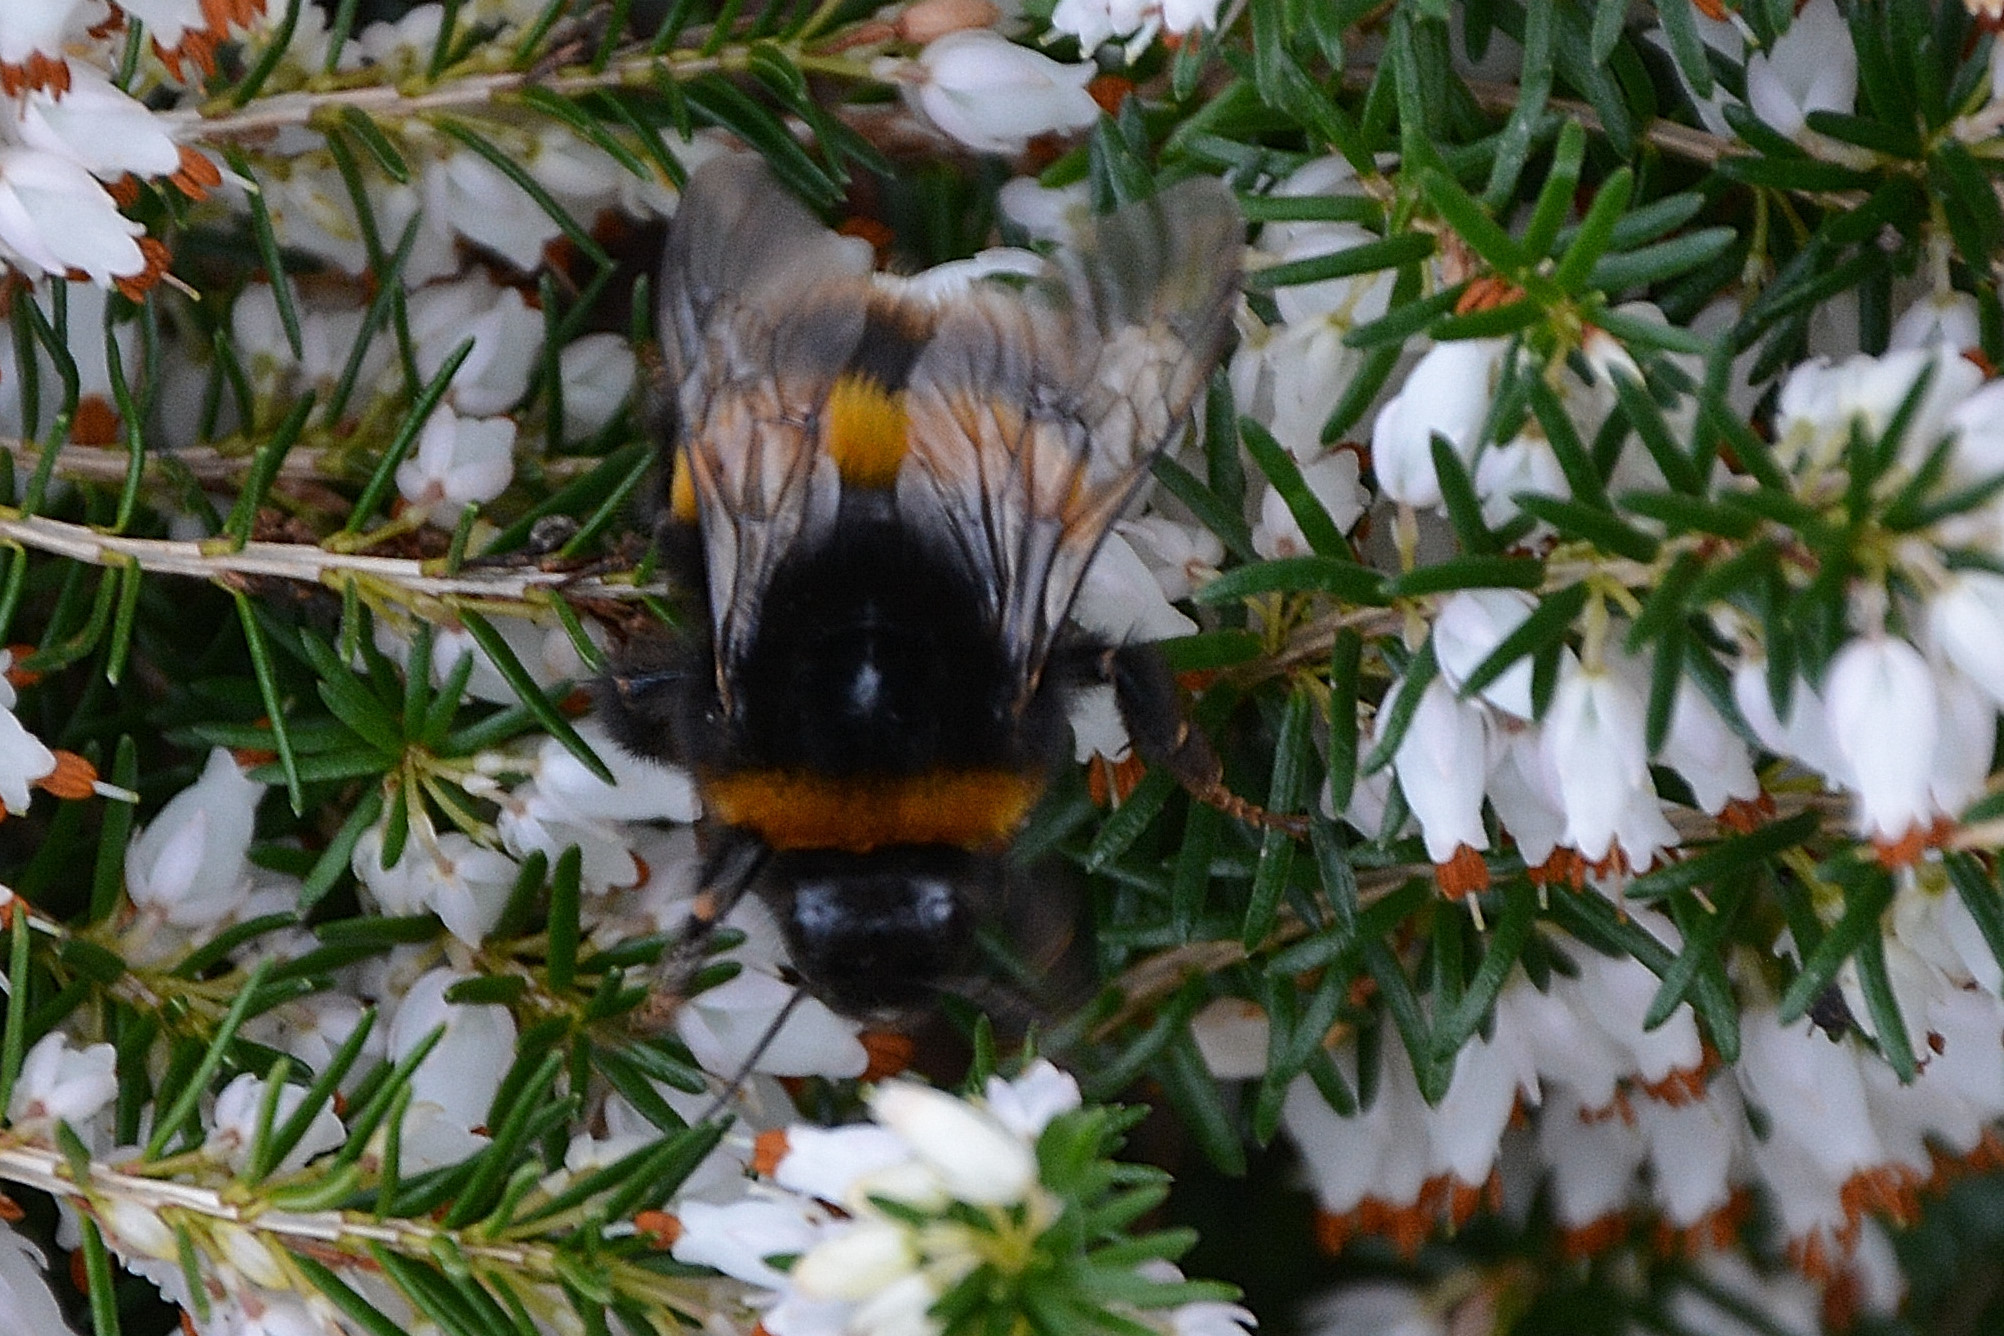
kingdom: Animalia
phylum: Arthropoda
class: Insecta
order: Hymenoptera
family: Apidae
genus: Bombus
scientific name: Bombus terrestris
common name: Buff-tailed bumblebee
